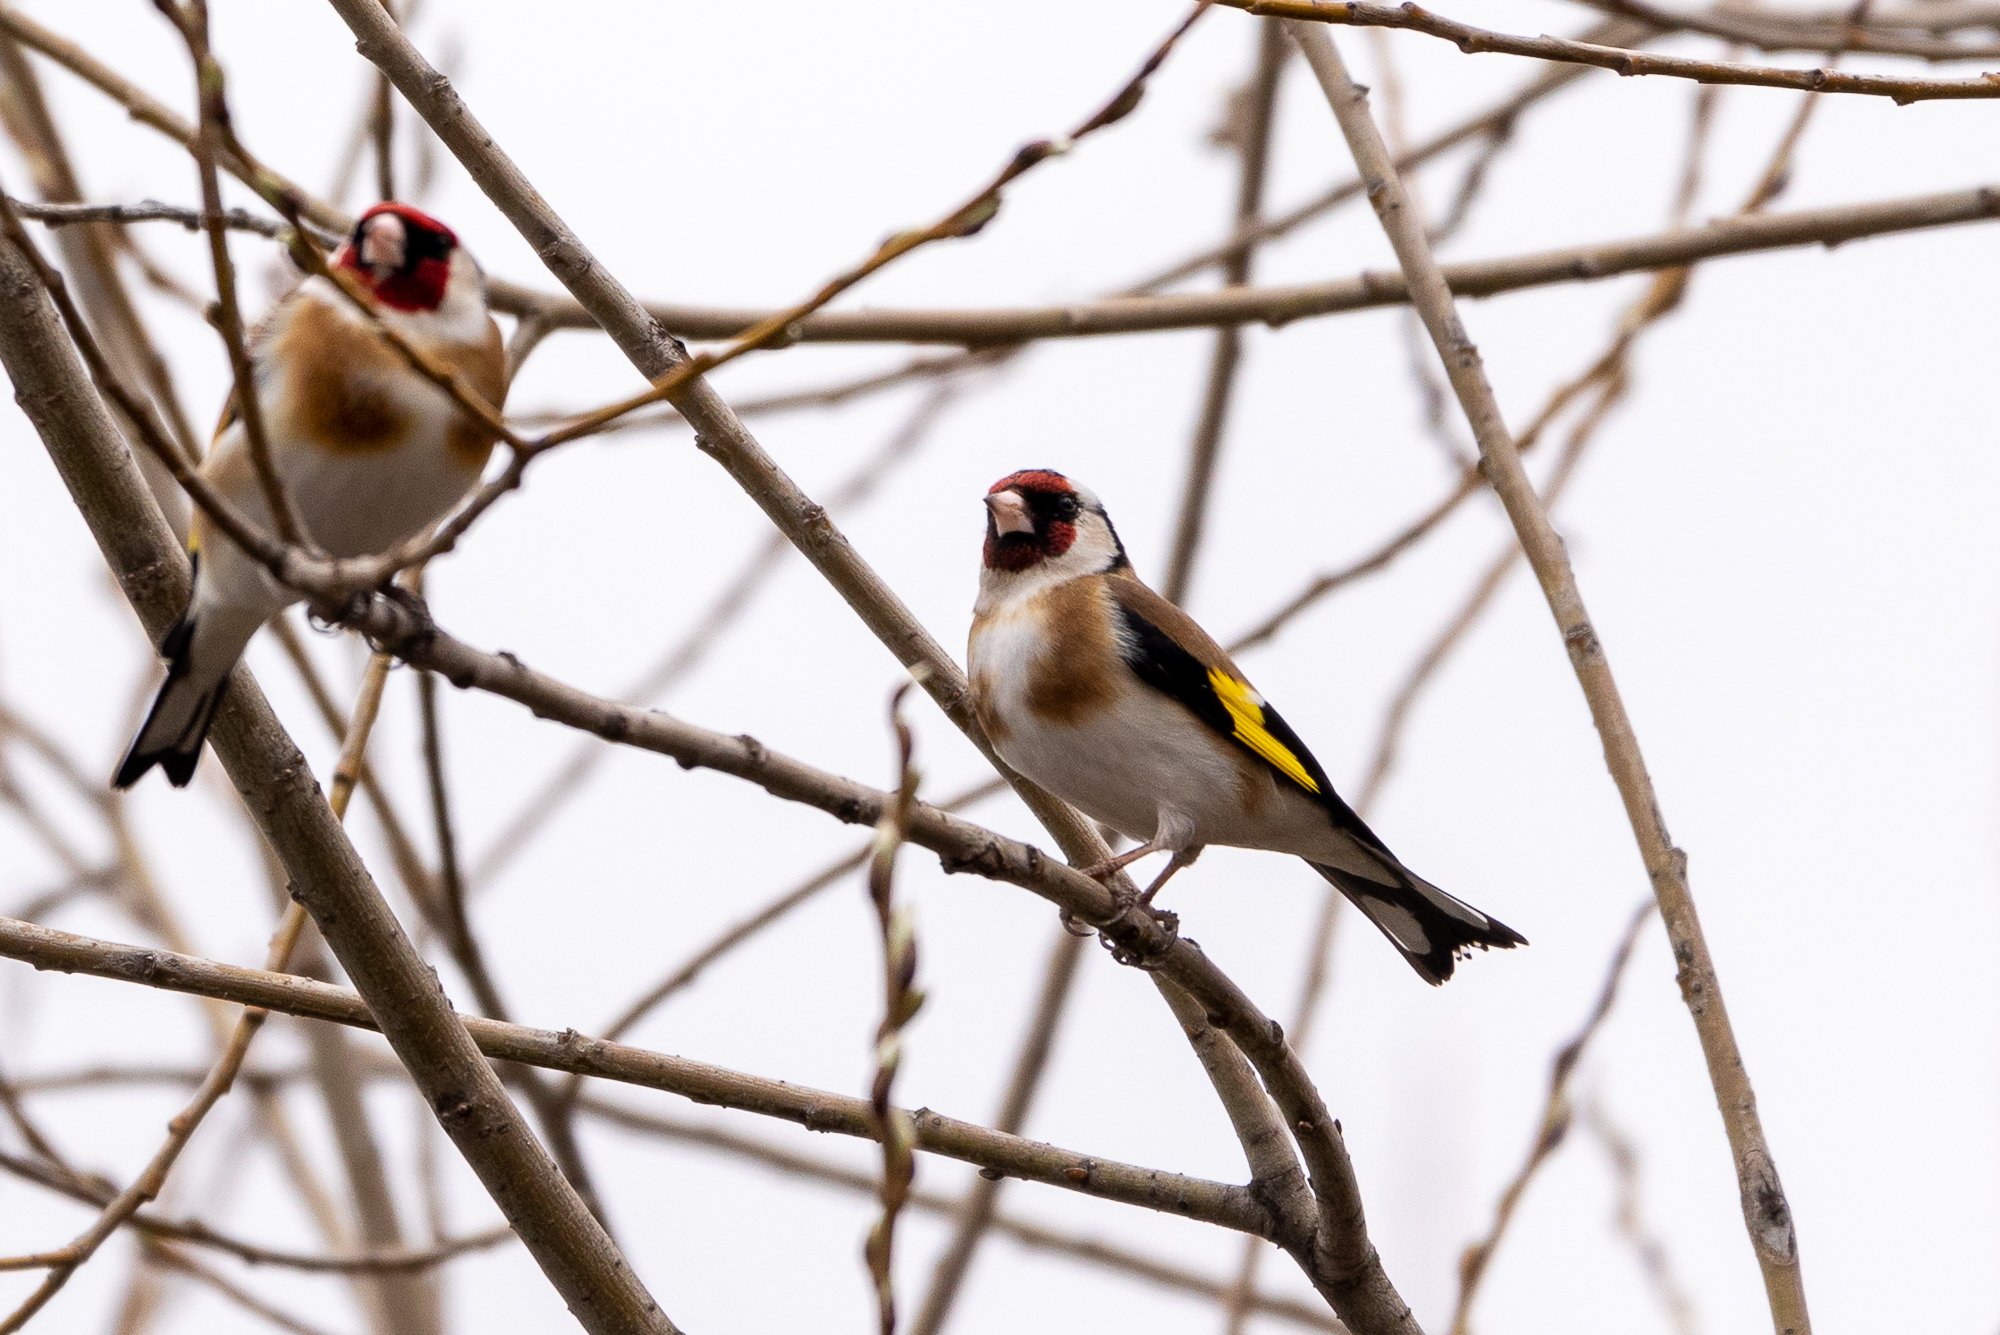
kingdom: Animalia
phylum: Chordata
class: Aves
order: Passeriformes
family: Fringillidae
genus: Carduelis
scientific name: Carduelis carduelis
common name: European goldfinch
